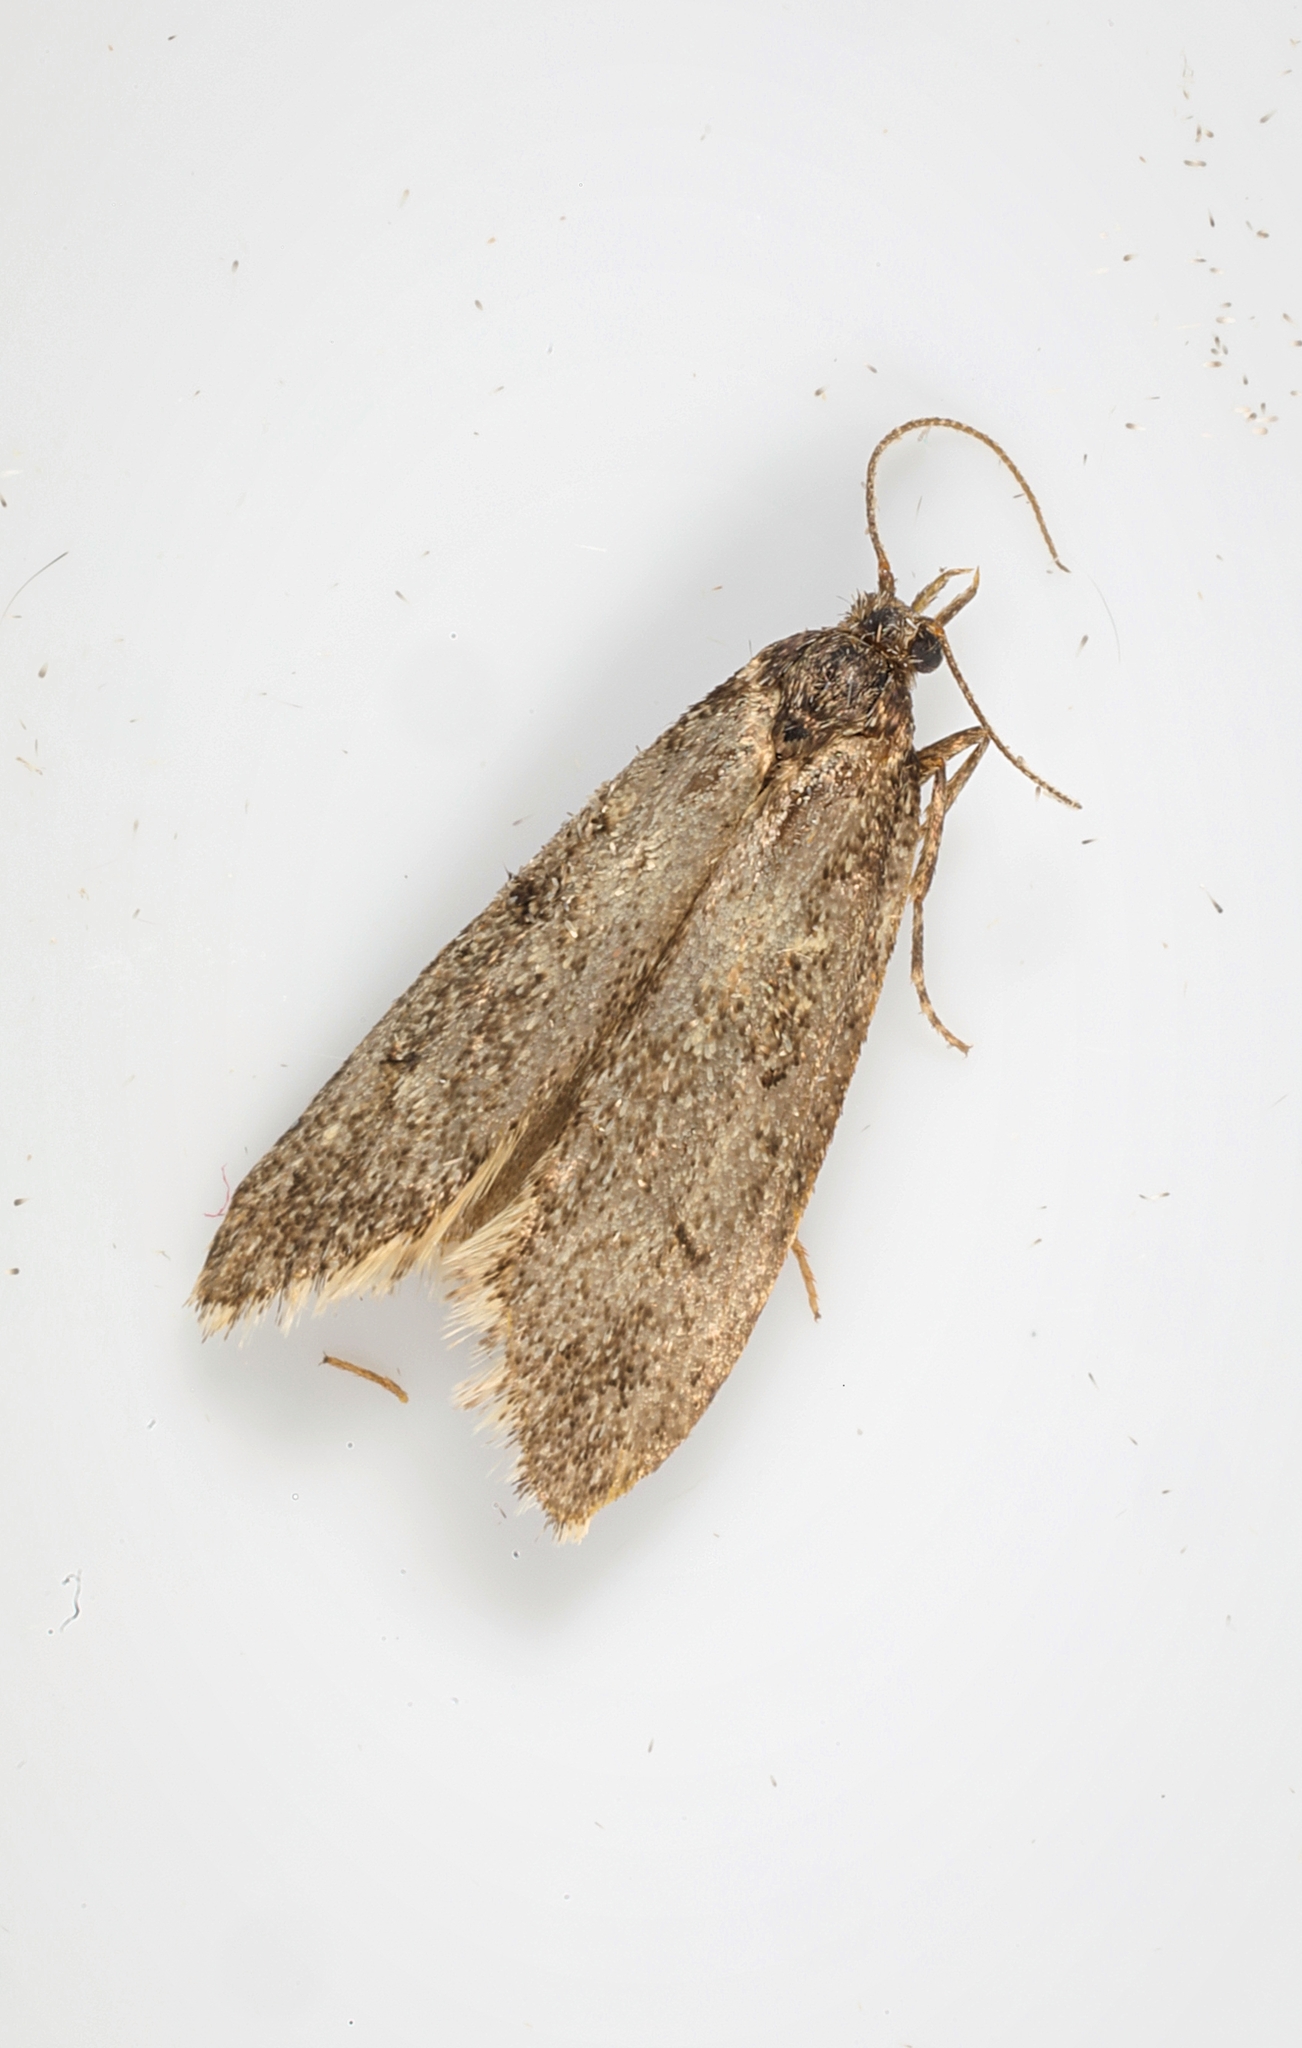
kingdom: Animalia
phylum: Arthropoda
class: Insecta
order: Lepidoptera
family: Lypusidae
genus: Diurnea
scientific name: Diurnea fagella
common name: March tubic
